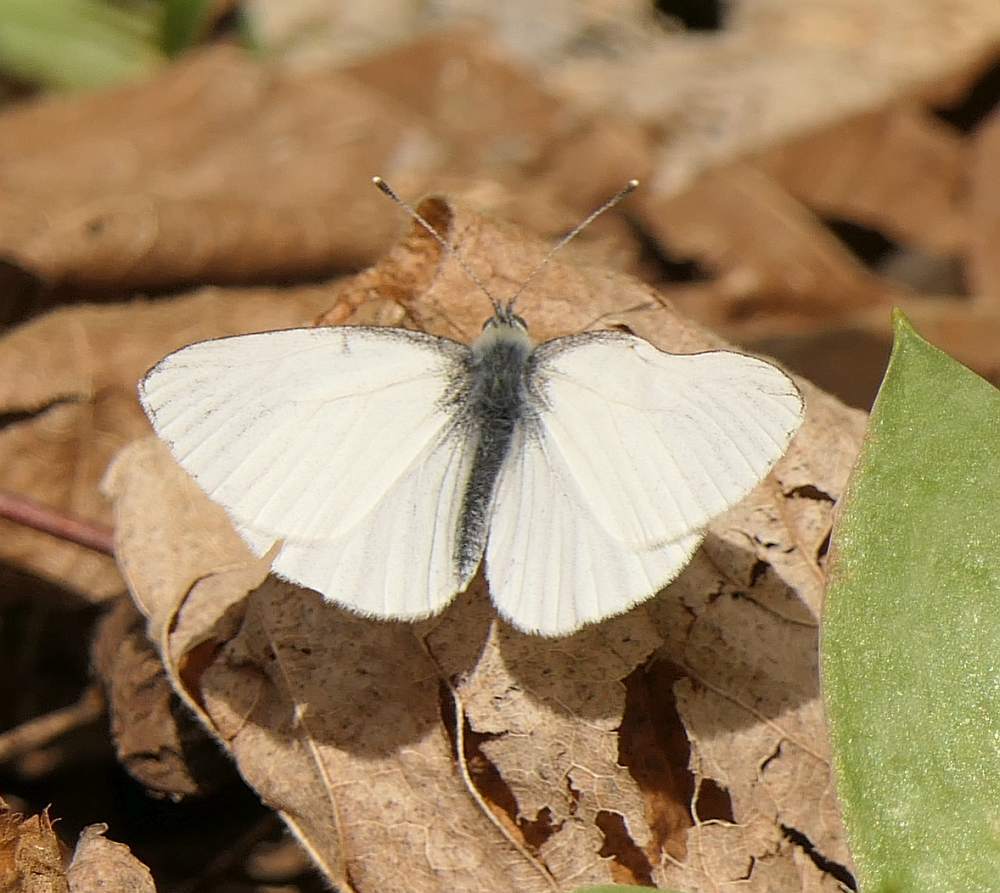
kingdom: Animalia
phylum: Arthropoda
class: Insecta
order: Lepidoptera
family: Pieridae
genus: Pieris
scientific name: Pieris oleracea
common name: Mustard white
